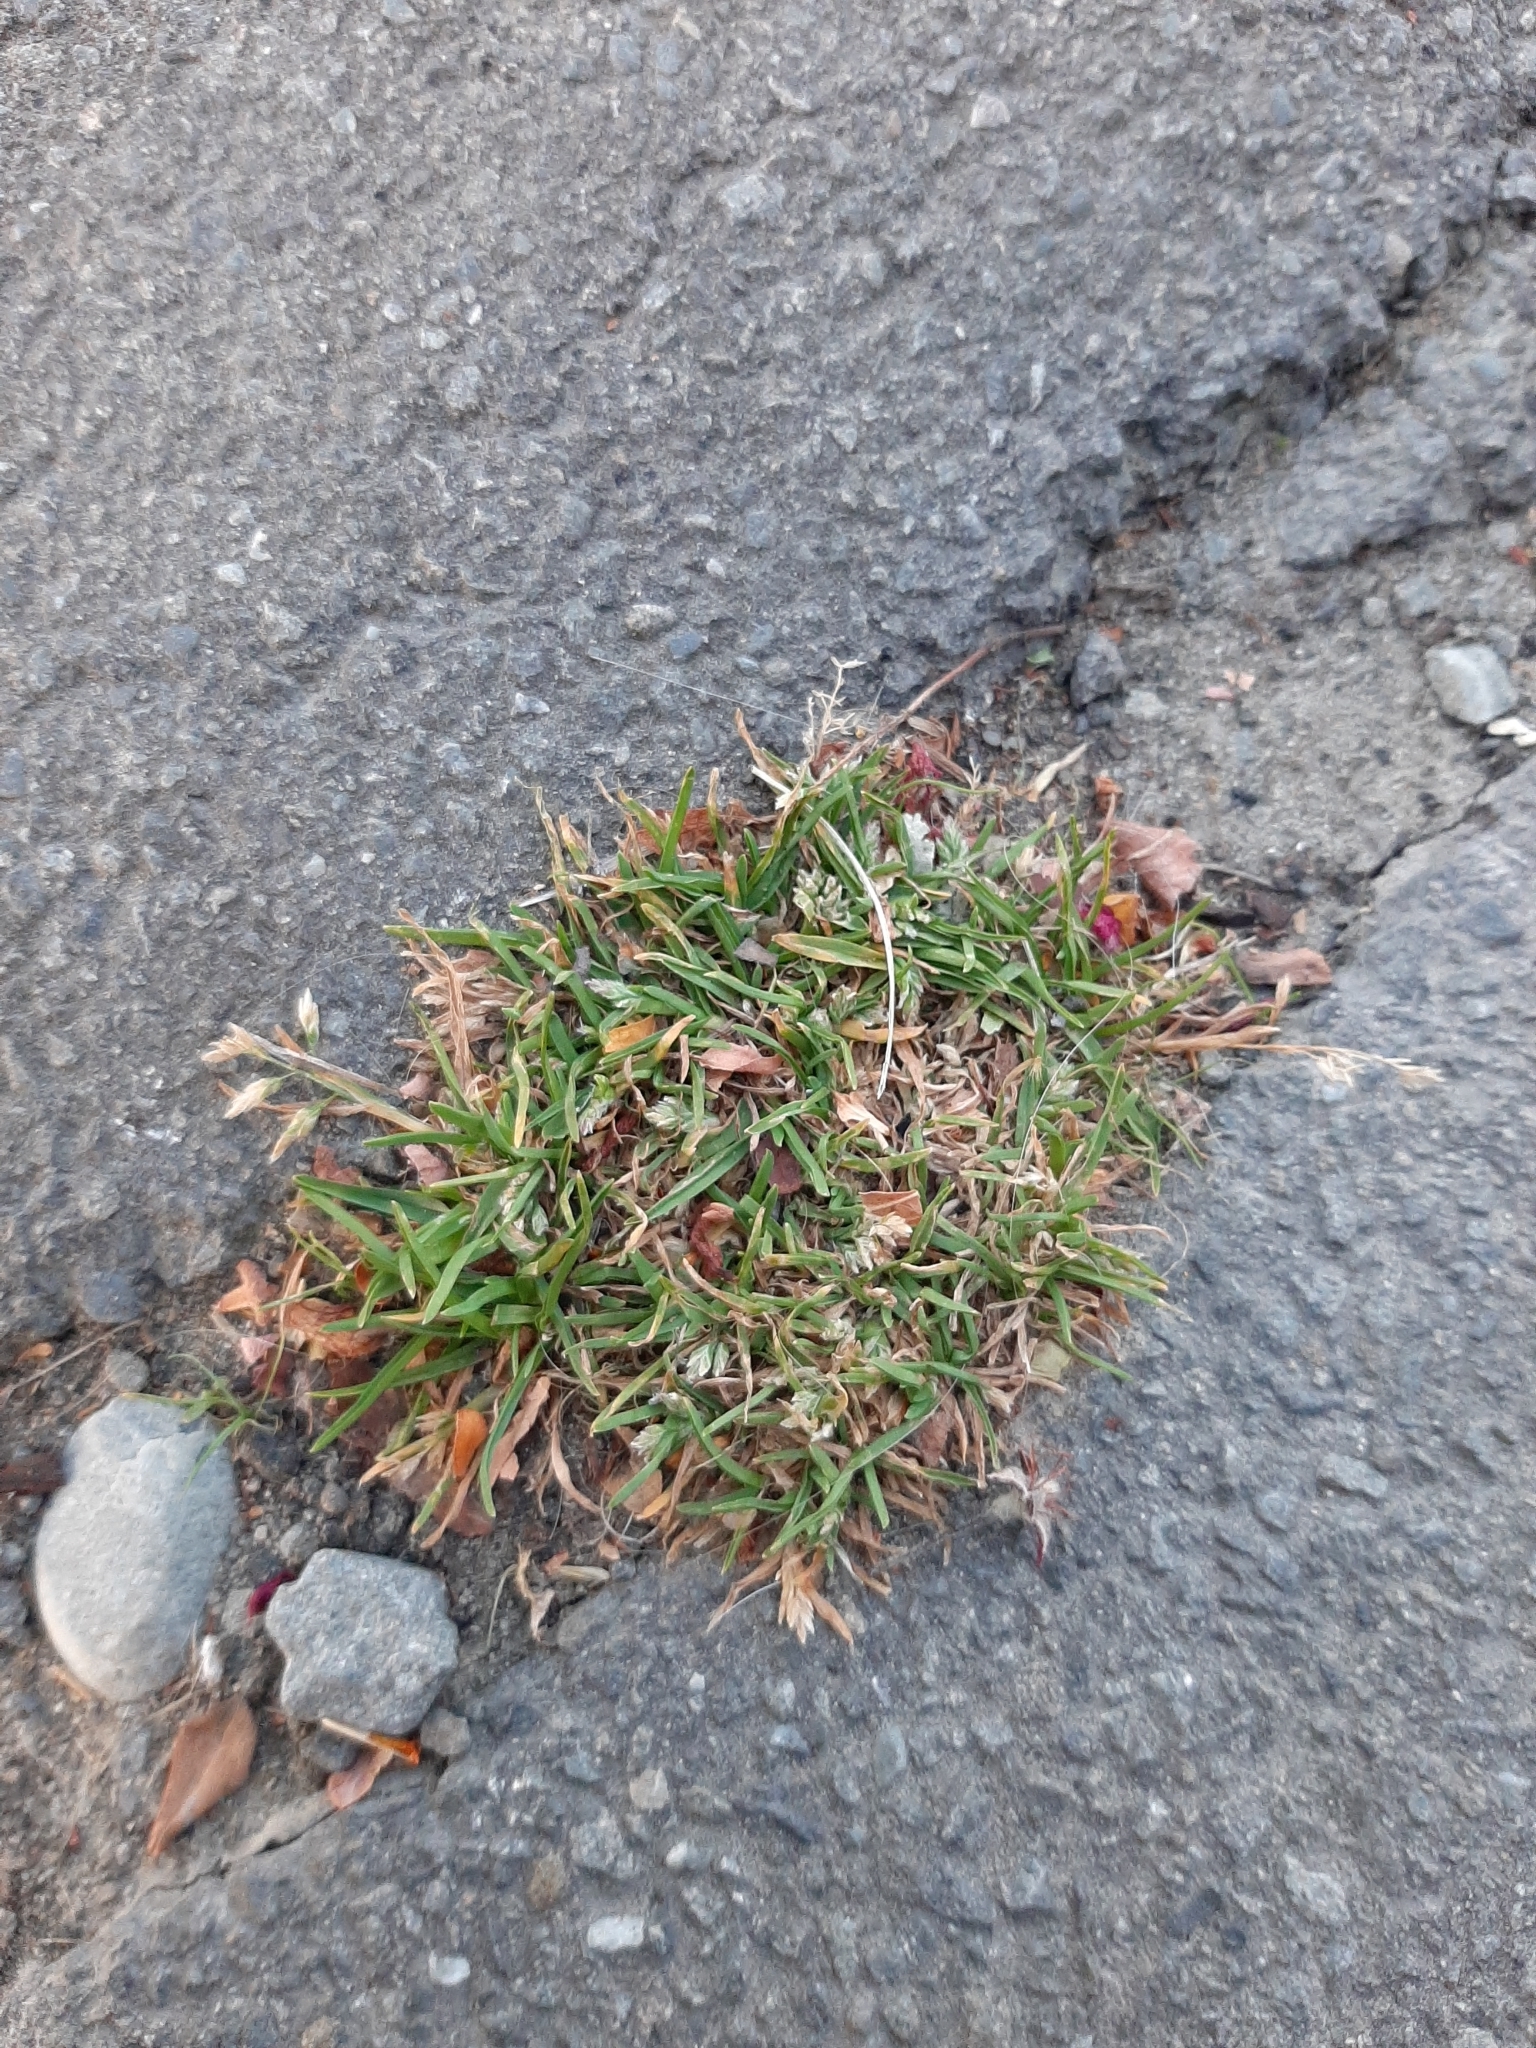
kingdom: Plantae
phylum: Tracheophyta
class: Liliopsida
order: Poales
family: Poaceae
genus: Poa
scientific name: Poa annua
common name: Annual bluegrass
